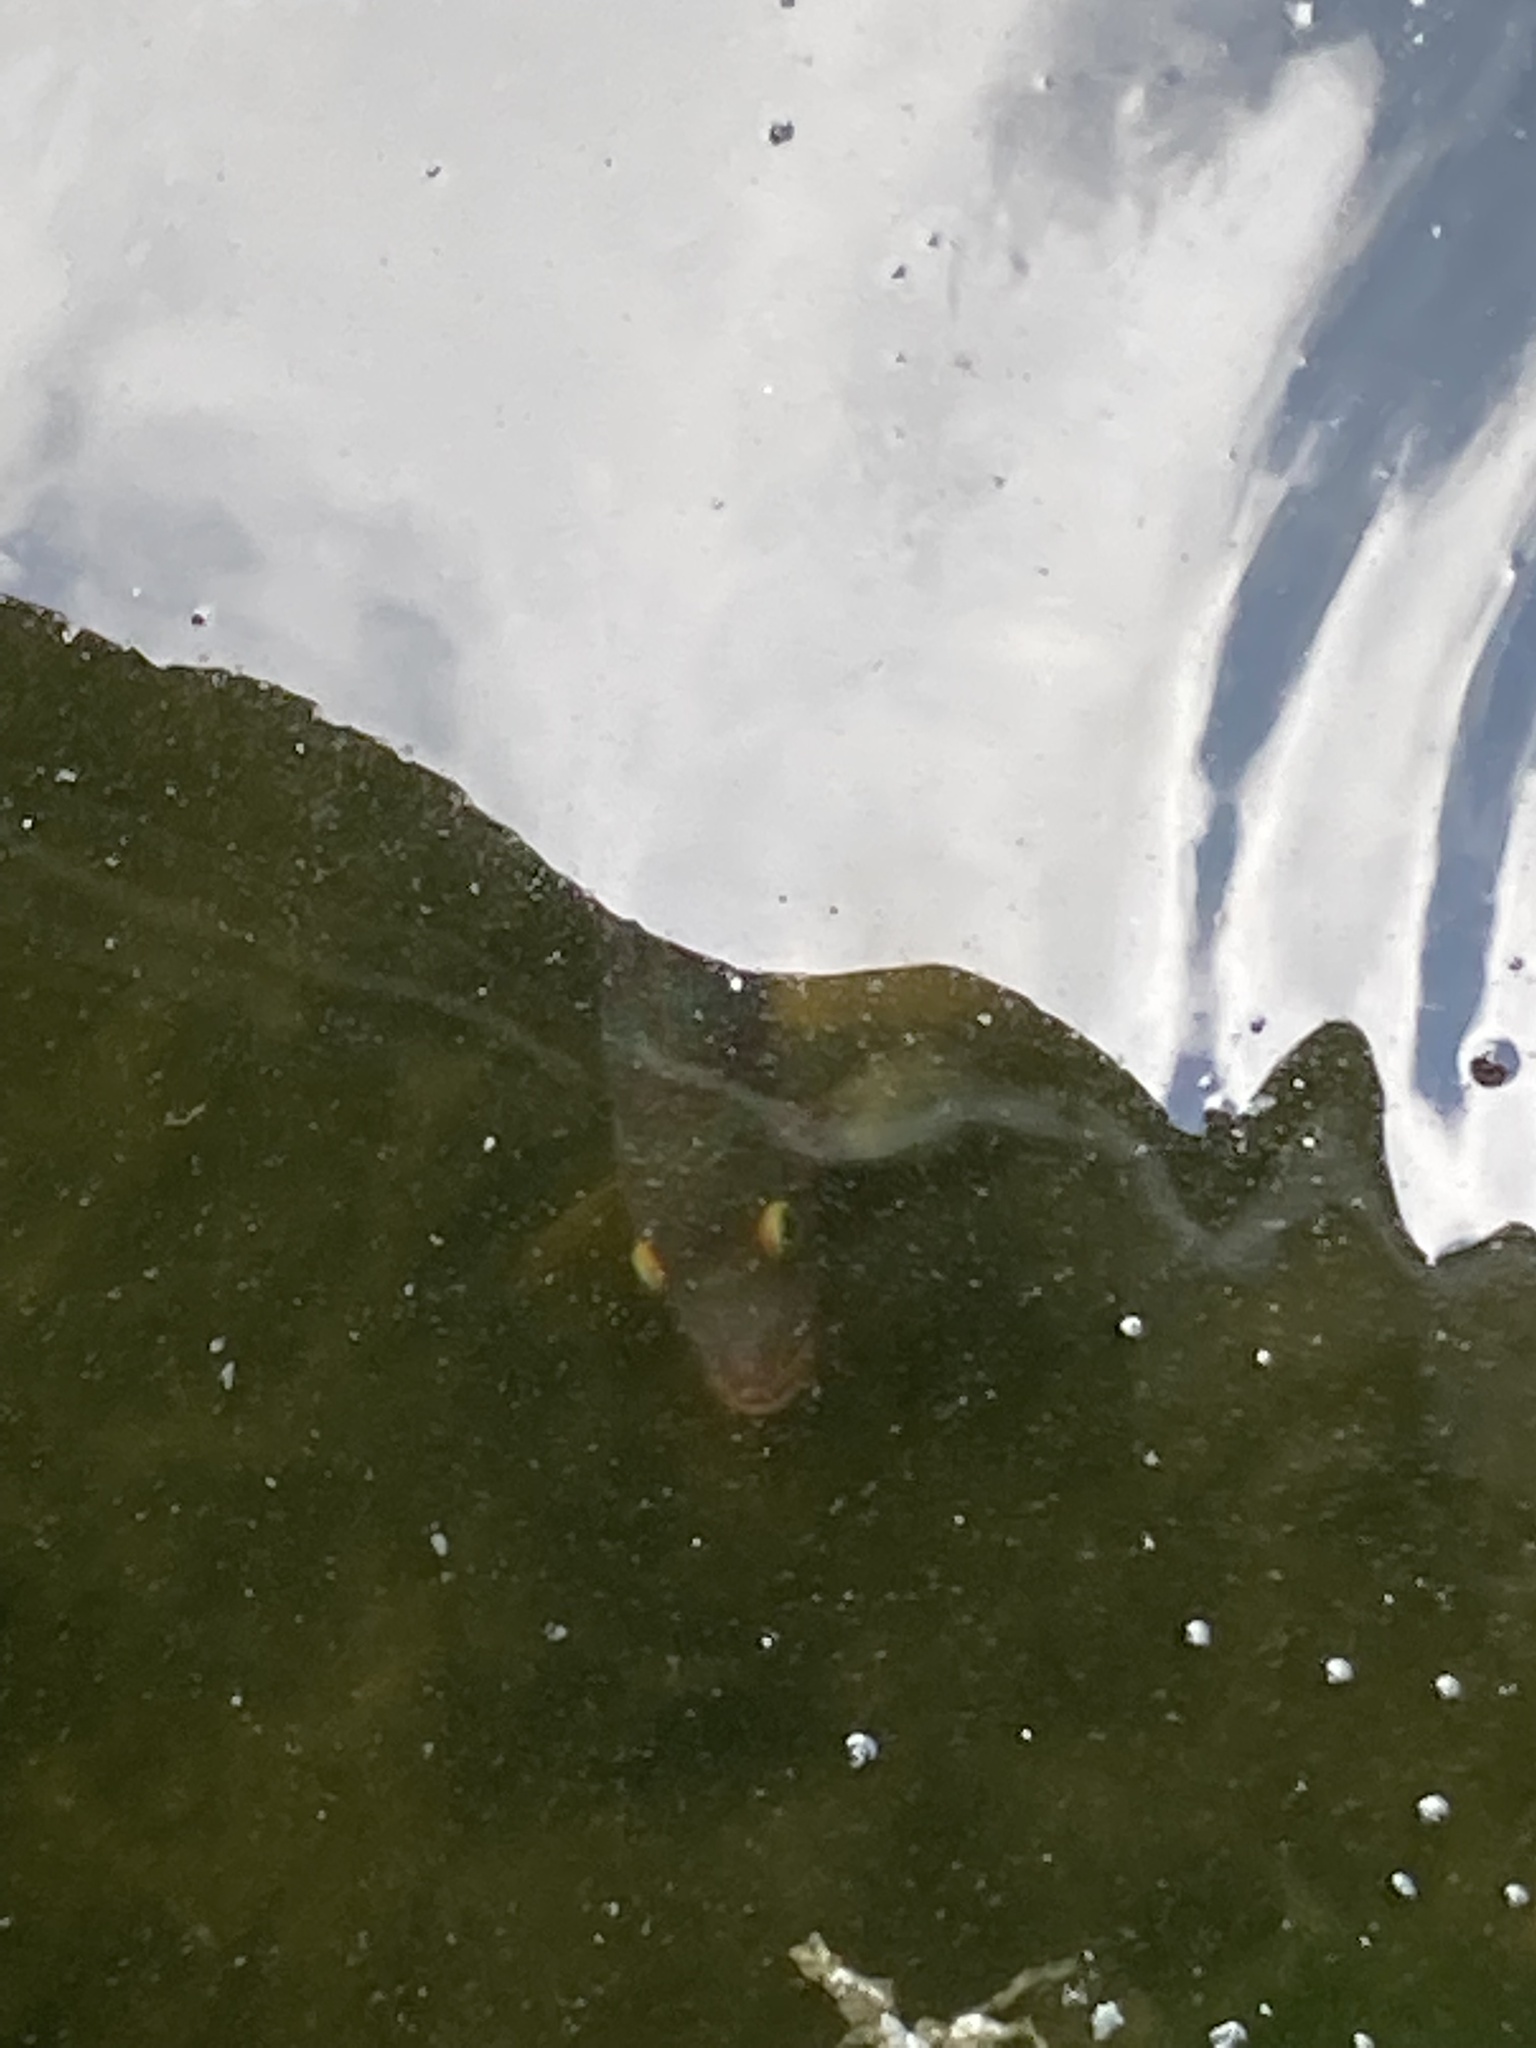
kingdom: Animalia
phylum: Chordata
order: Perciformes
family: Cichlidae
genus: Mayaheros
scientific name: Mayaheros urophthalmus
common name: Mayan cichlid
